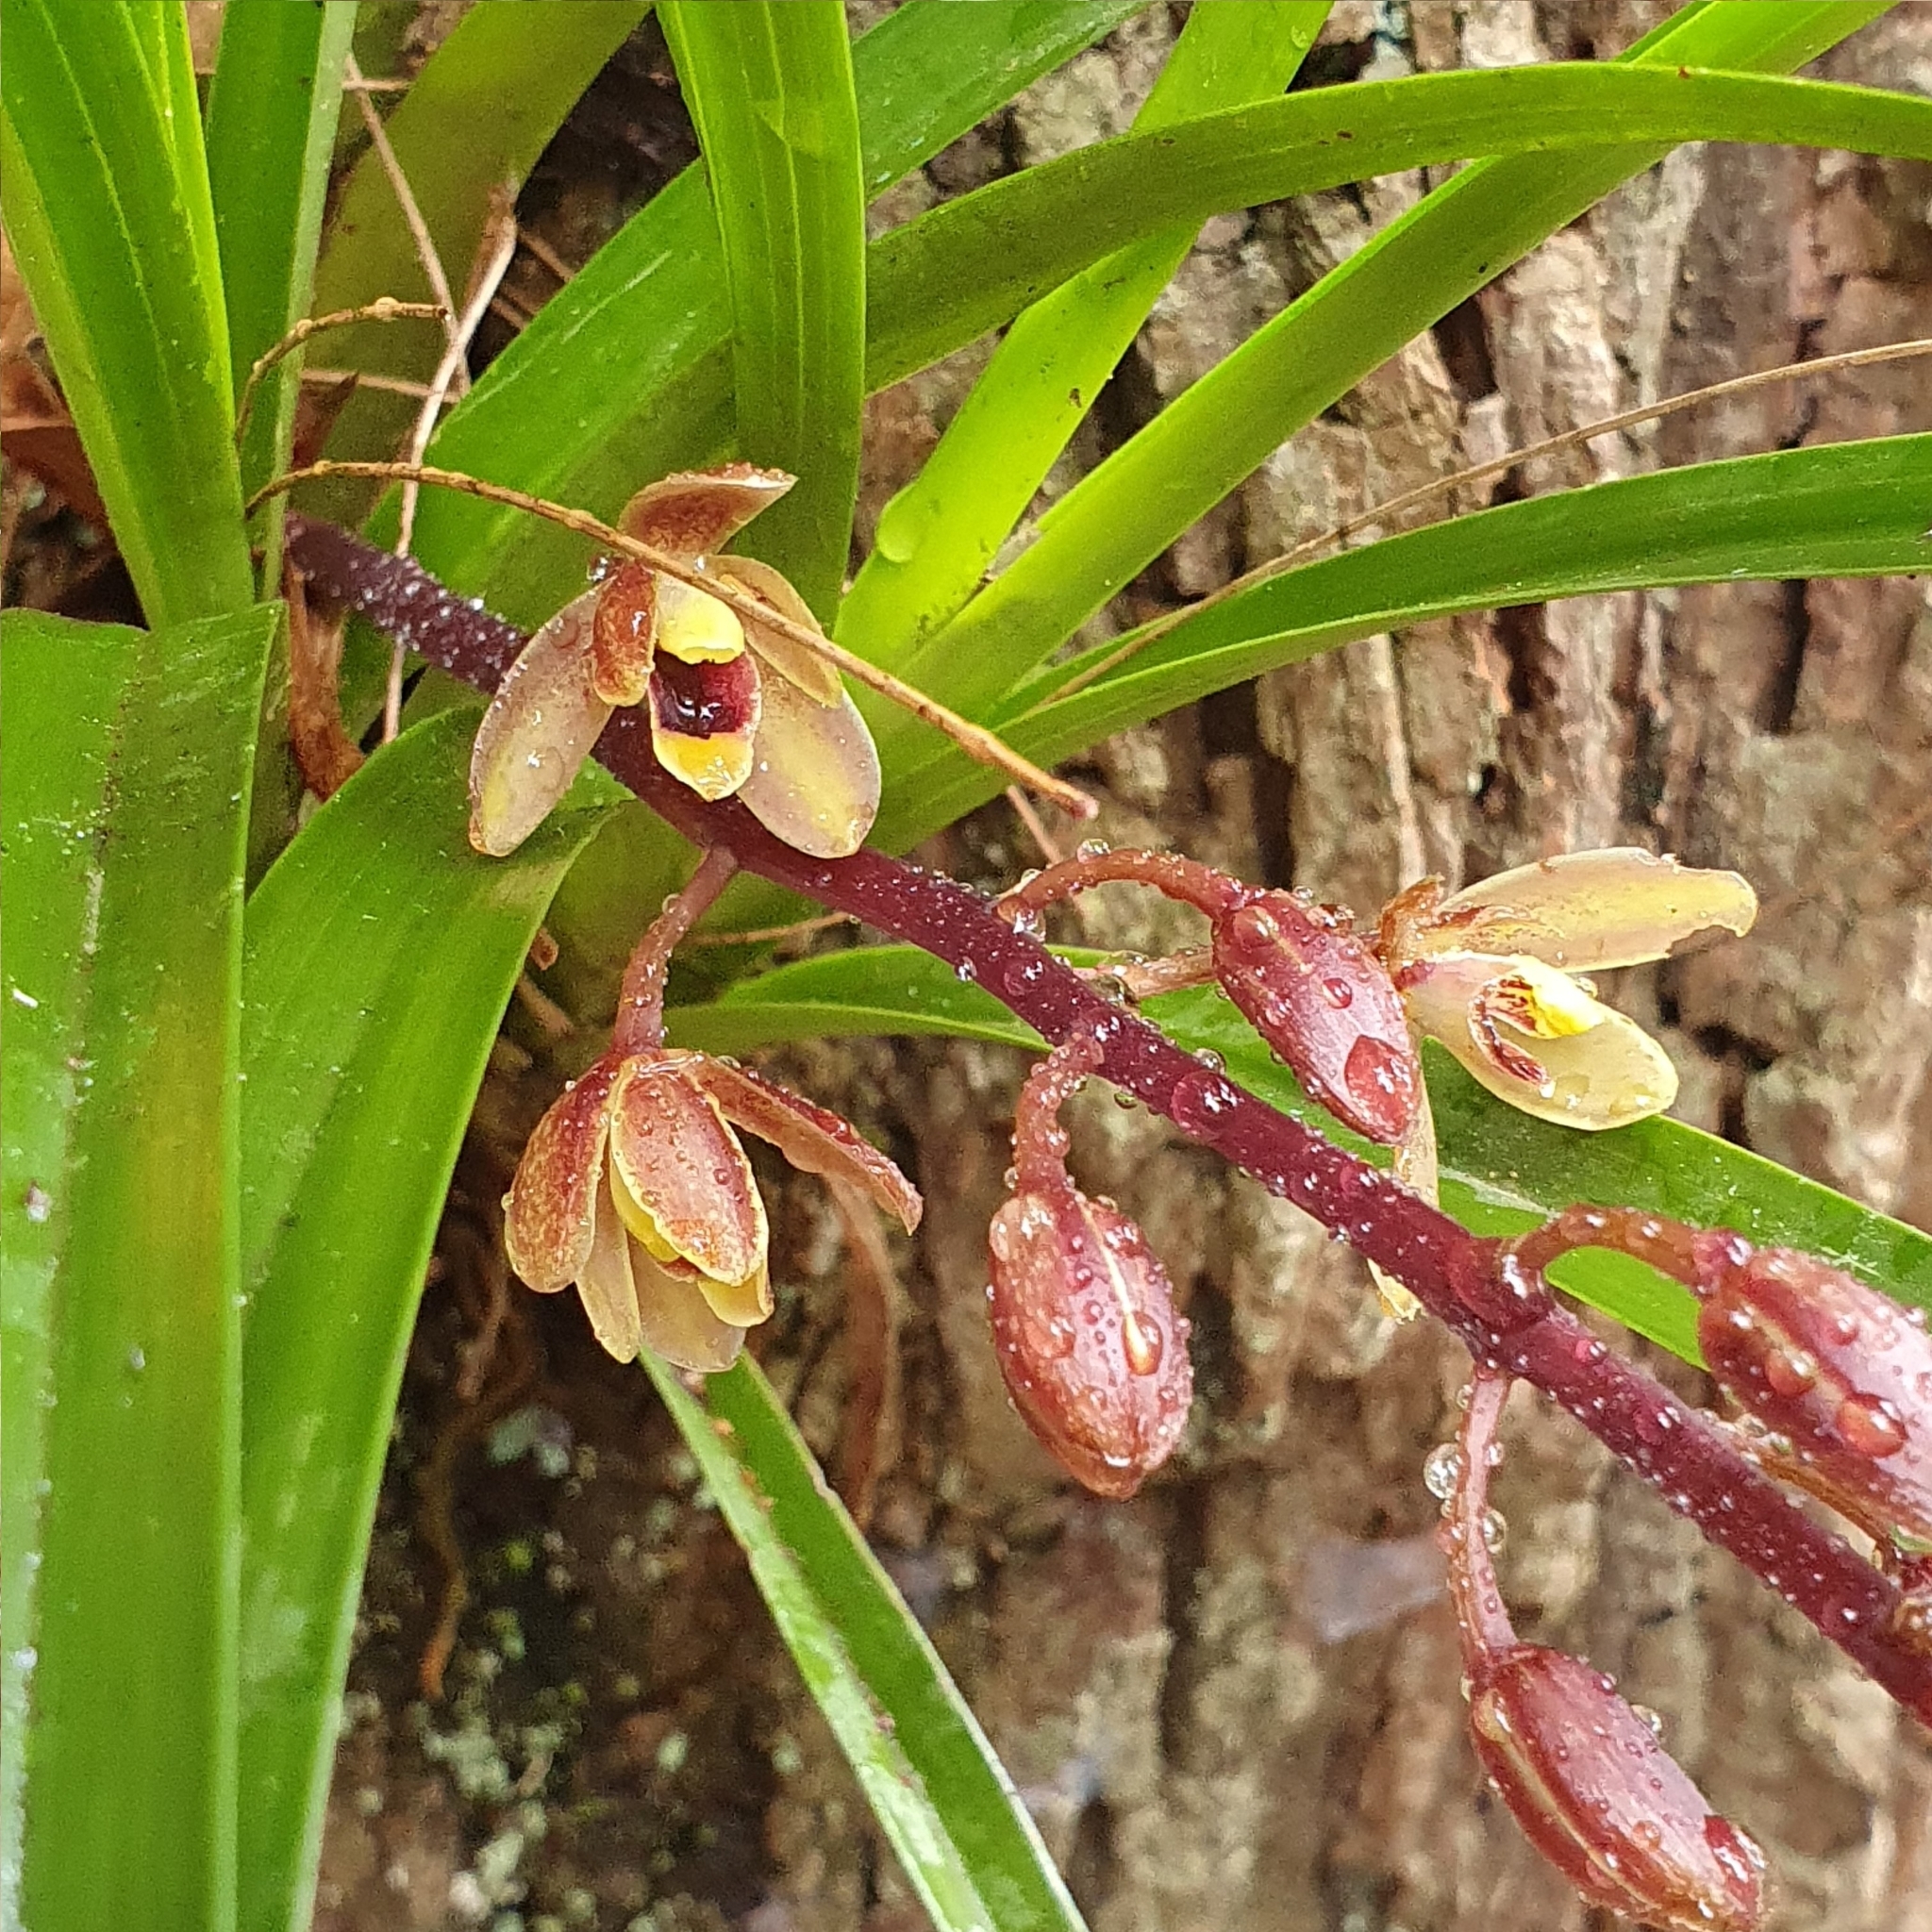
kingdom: Plantae
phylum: Tracheophyta
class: Liliopsida
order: Asparagales
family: Orchidaceae
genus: Cymbidium
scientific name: Cymbidium suave
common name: Snake orchid
